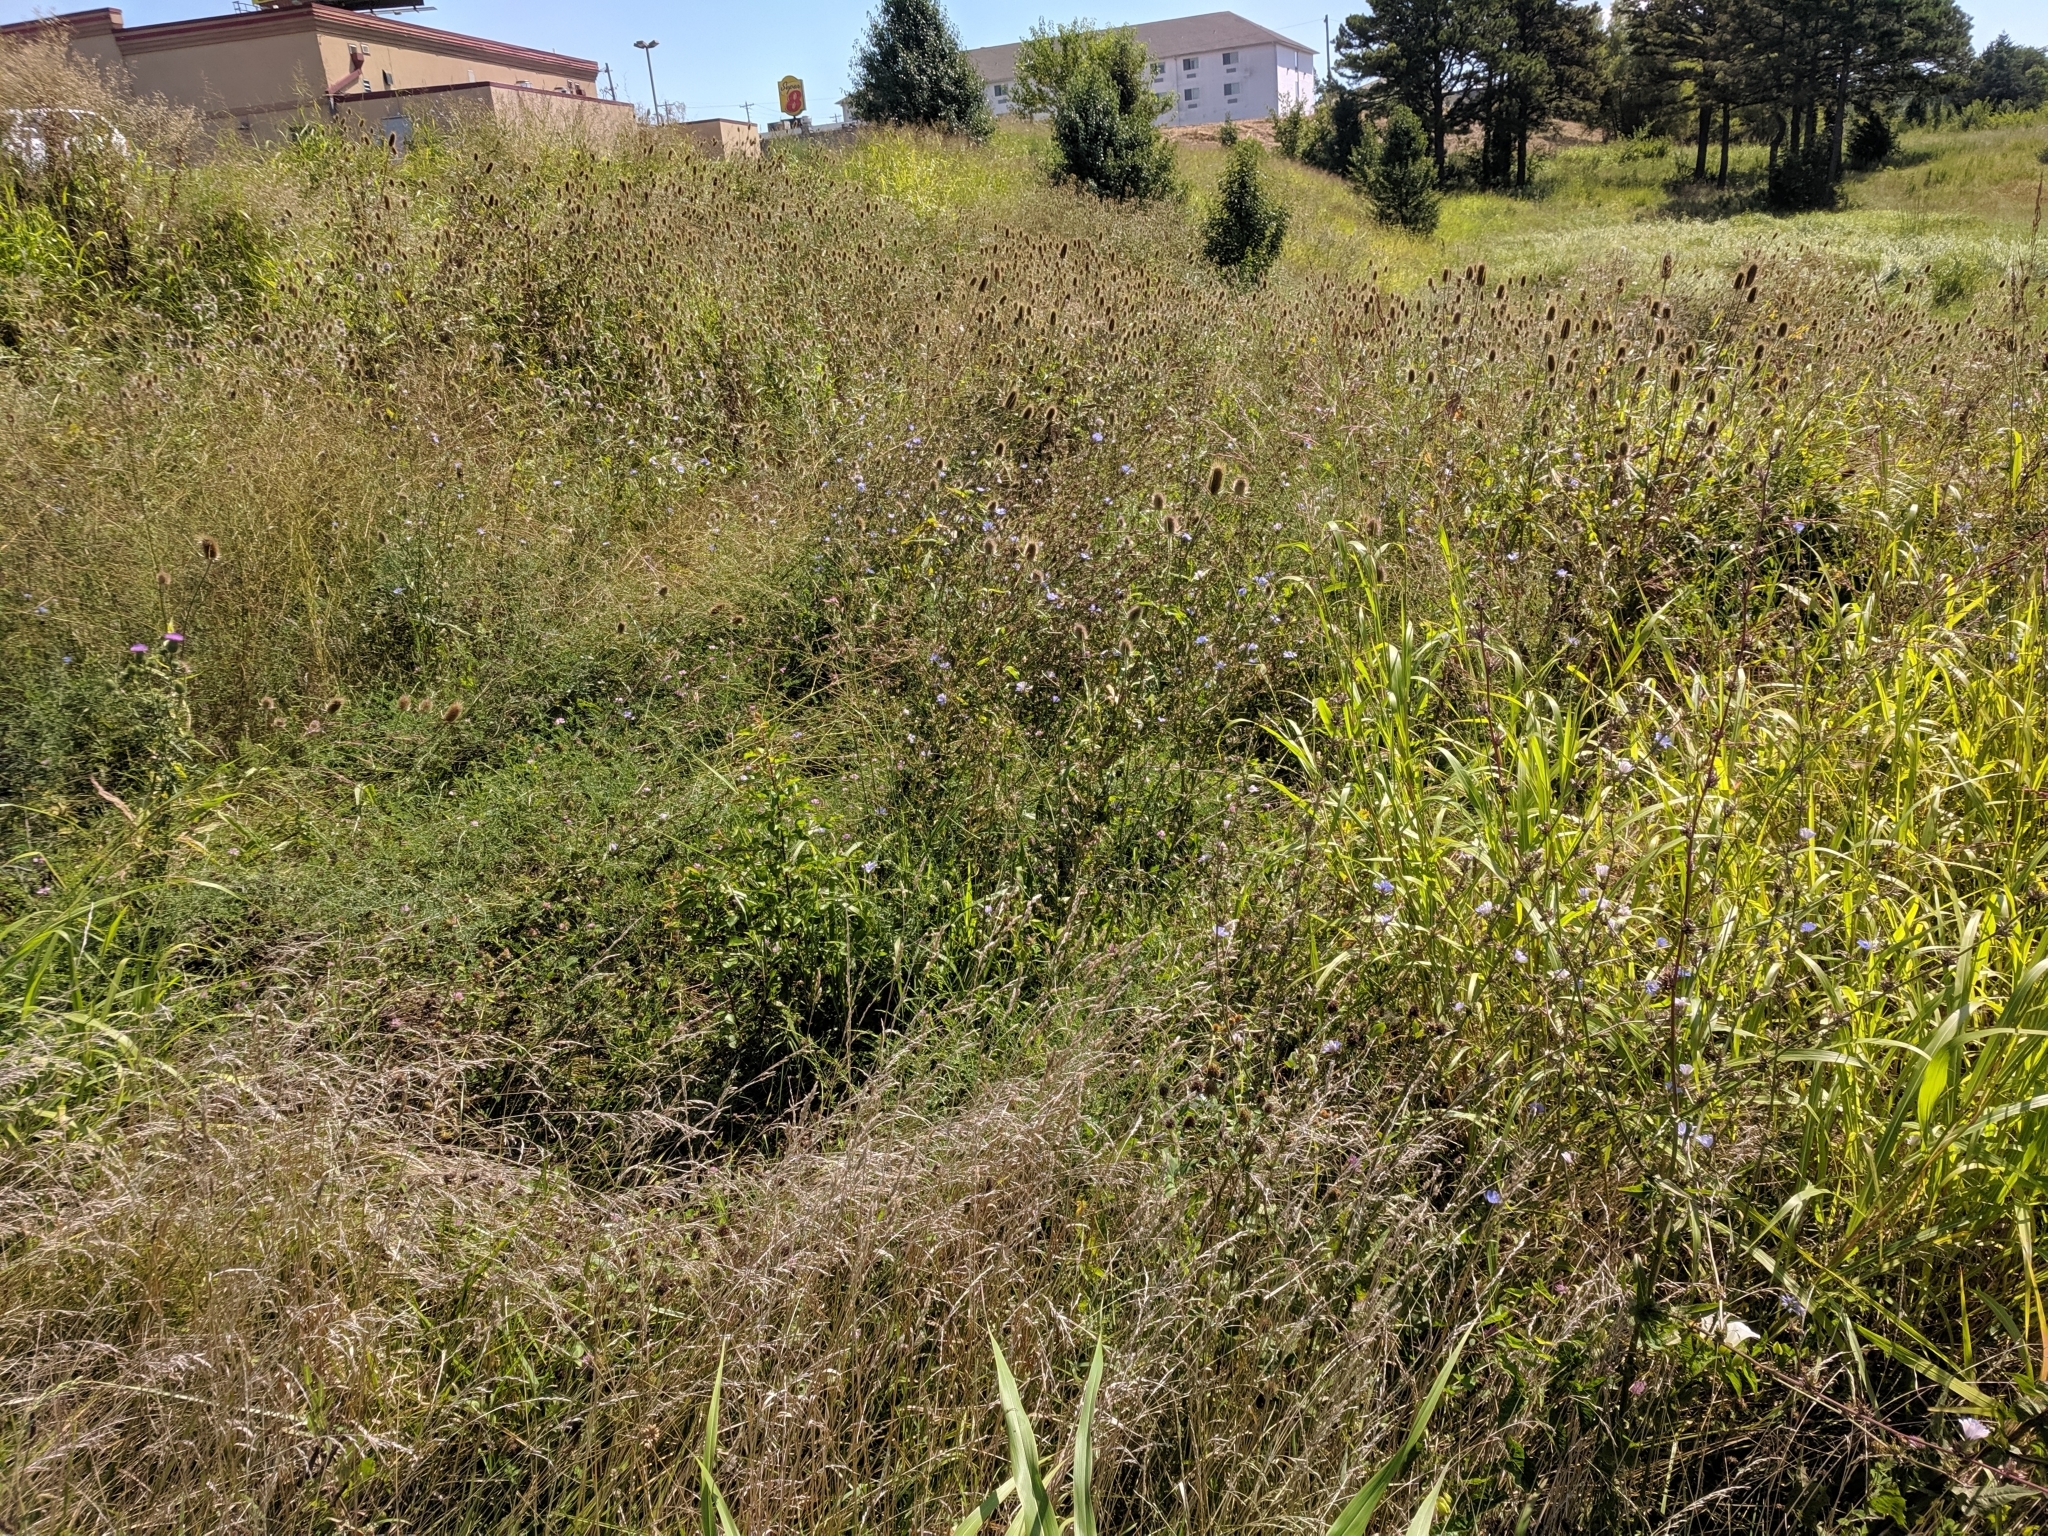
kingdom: Plantae
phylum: Tracheophyta
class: Magnoliopsida
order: Dipsacales
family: Caprifoliaceae
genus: Dipsacus
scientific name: Dipsacus fullonum
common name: Teasel
